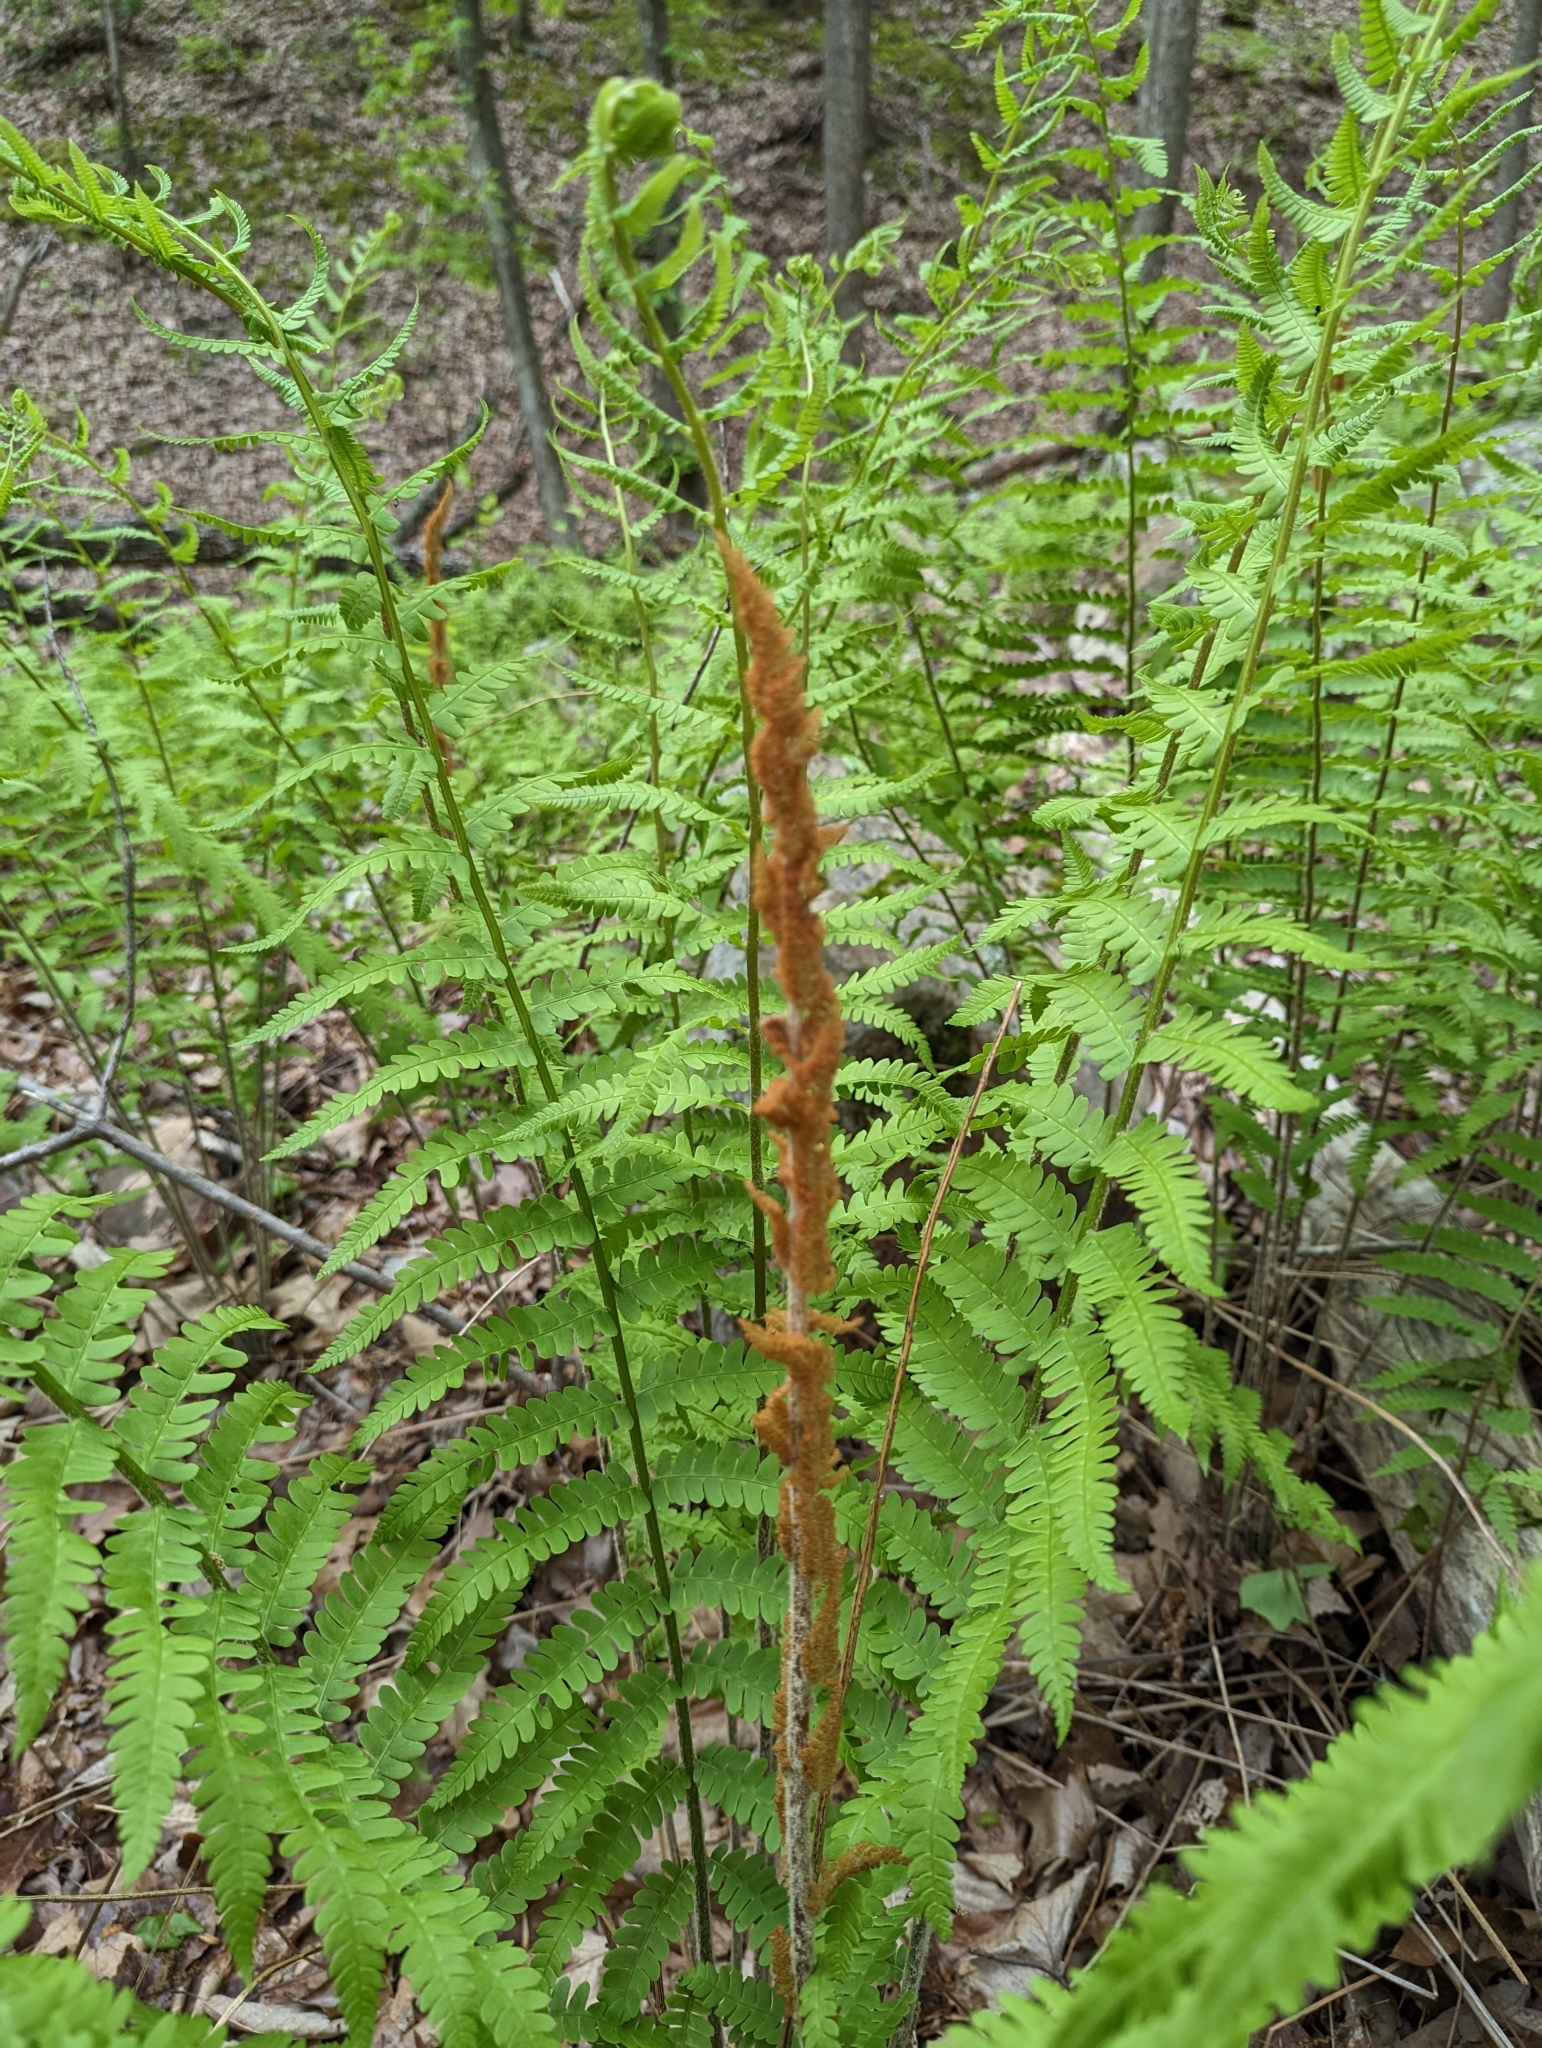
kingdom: Plantae
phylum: Tracheophyta
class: Polypodiopsida
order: Osmundales
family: Osmundaceae
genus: Osmundastrum
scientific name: Osmundastrum cinnamomeum
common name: Cinnamon fern
